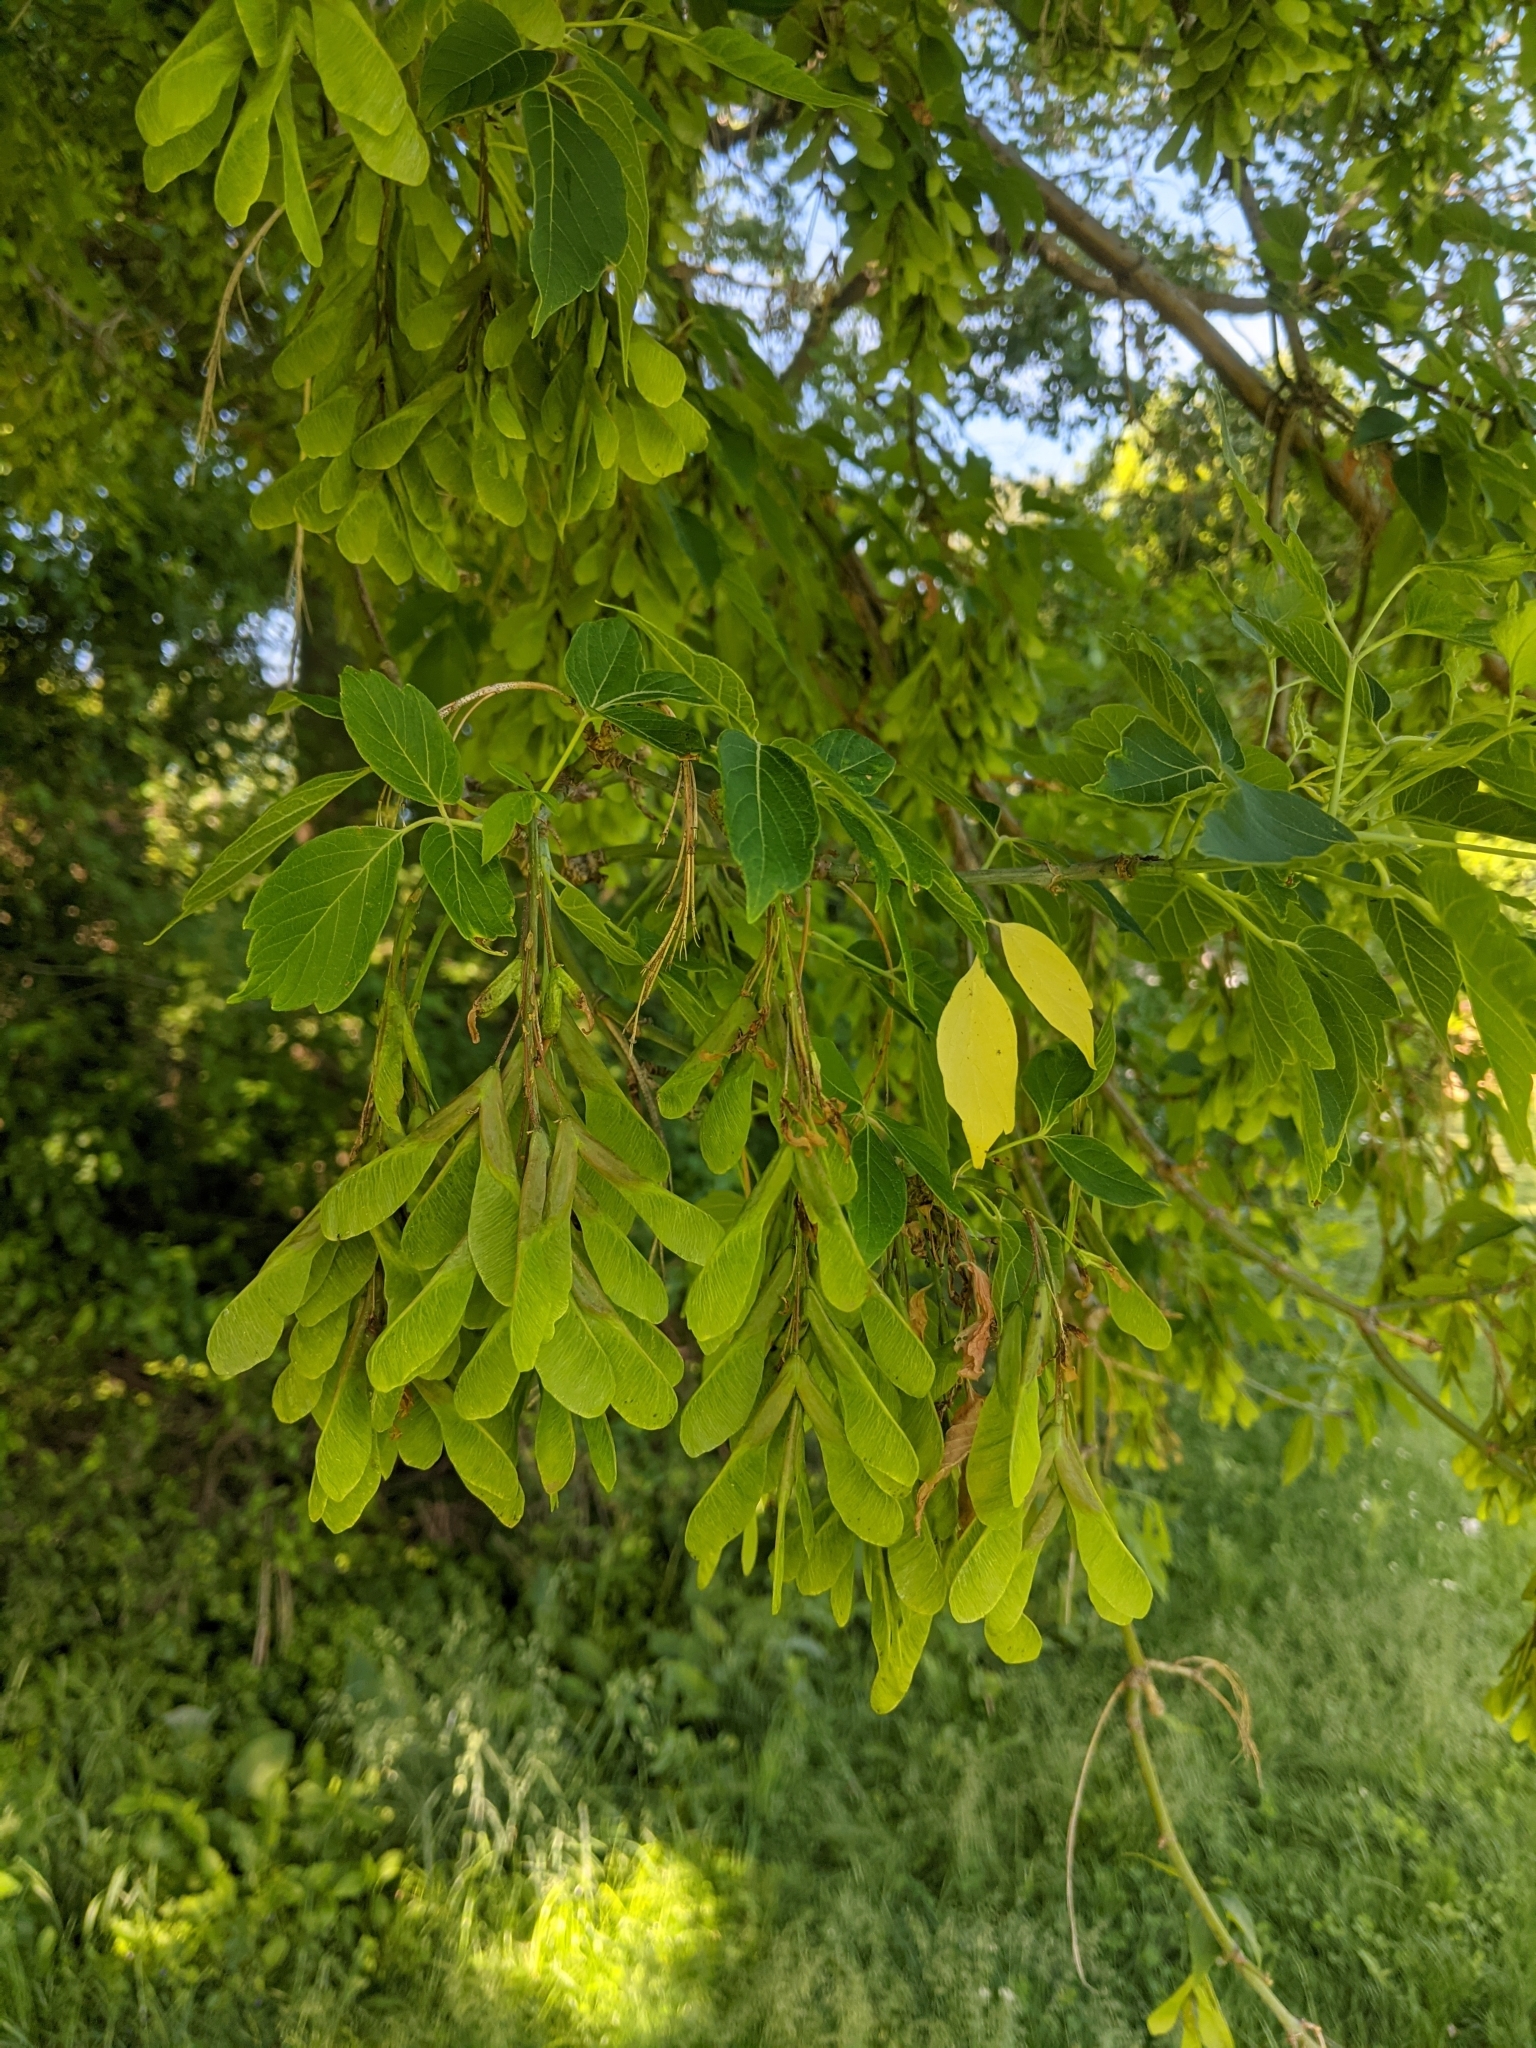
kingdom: Plantae
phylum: Tracheophyta
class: Magnoliopsida
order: Sapindales
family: Sapindaceae
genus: Acer
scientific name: Acer negundo
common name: Ashleaf maple
